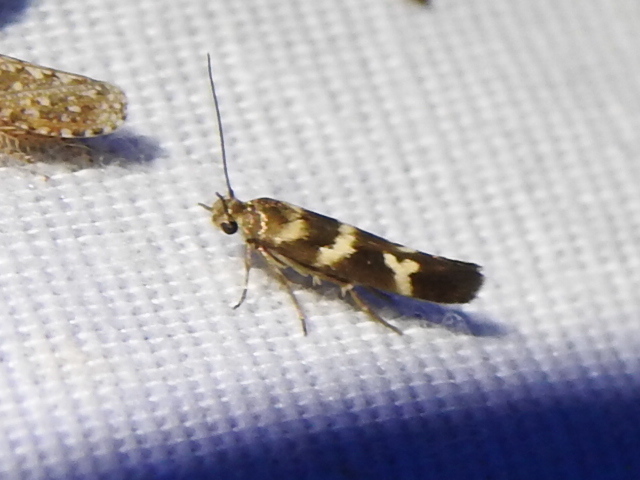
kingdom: Animalia
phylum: Arthropoda
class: Insecta
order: Lepidoptera
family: Scythrididae
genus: Scythris
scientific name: Scythris trivinctella
